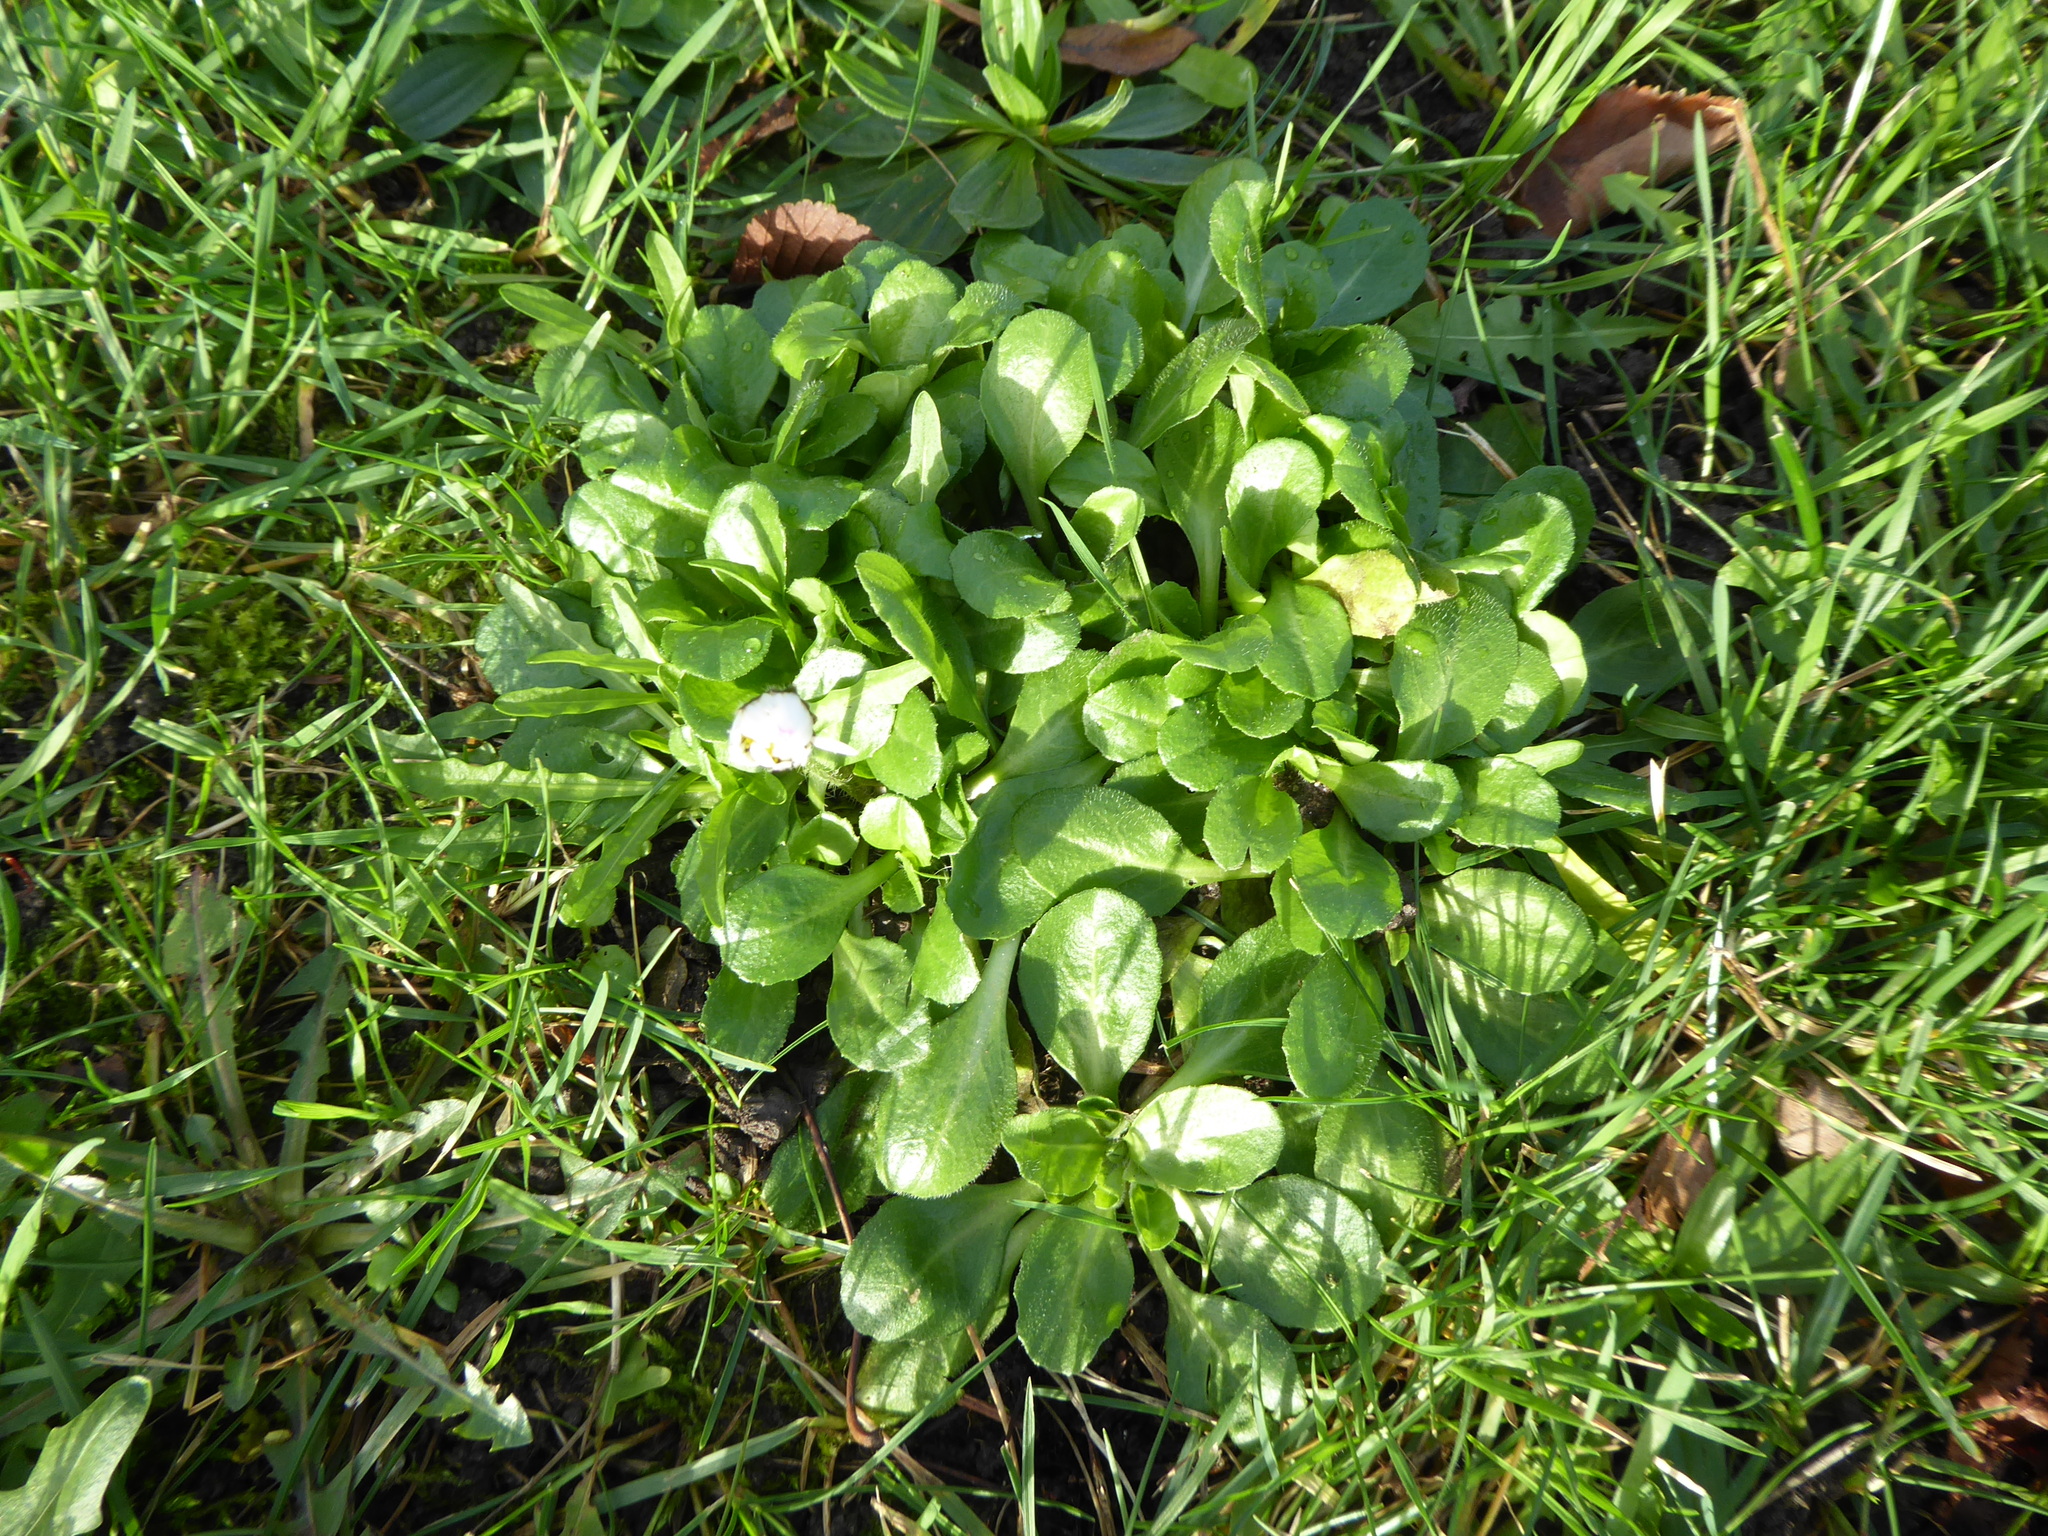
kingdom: Plantae
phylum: Tracheophyta
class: Magnoliopsida
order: Asterales
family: Asteraceae
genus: Bellis
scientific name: Bellis perennis
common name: Lawndaisy
